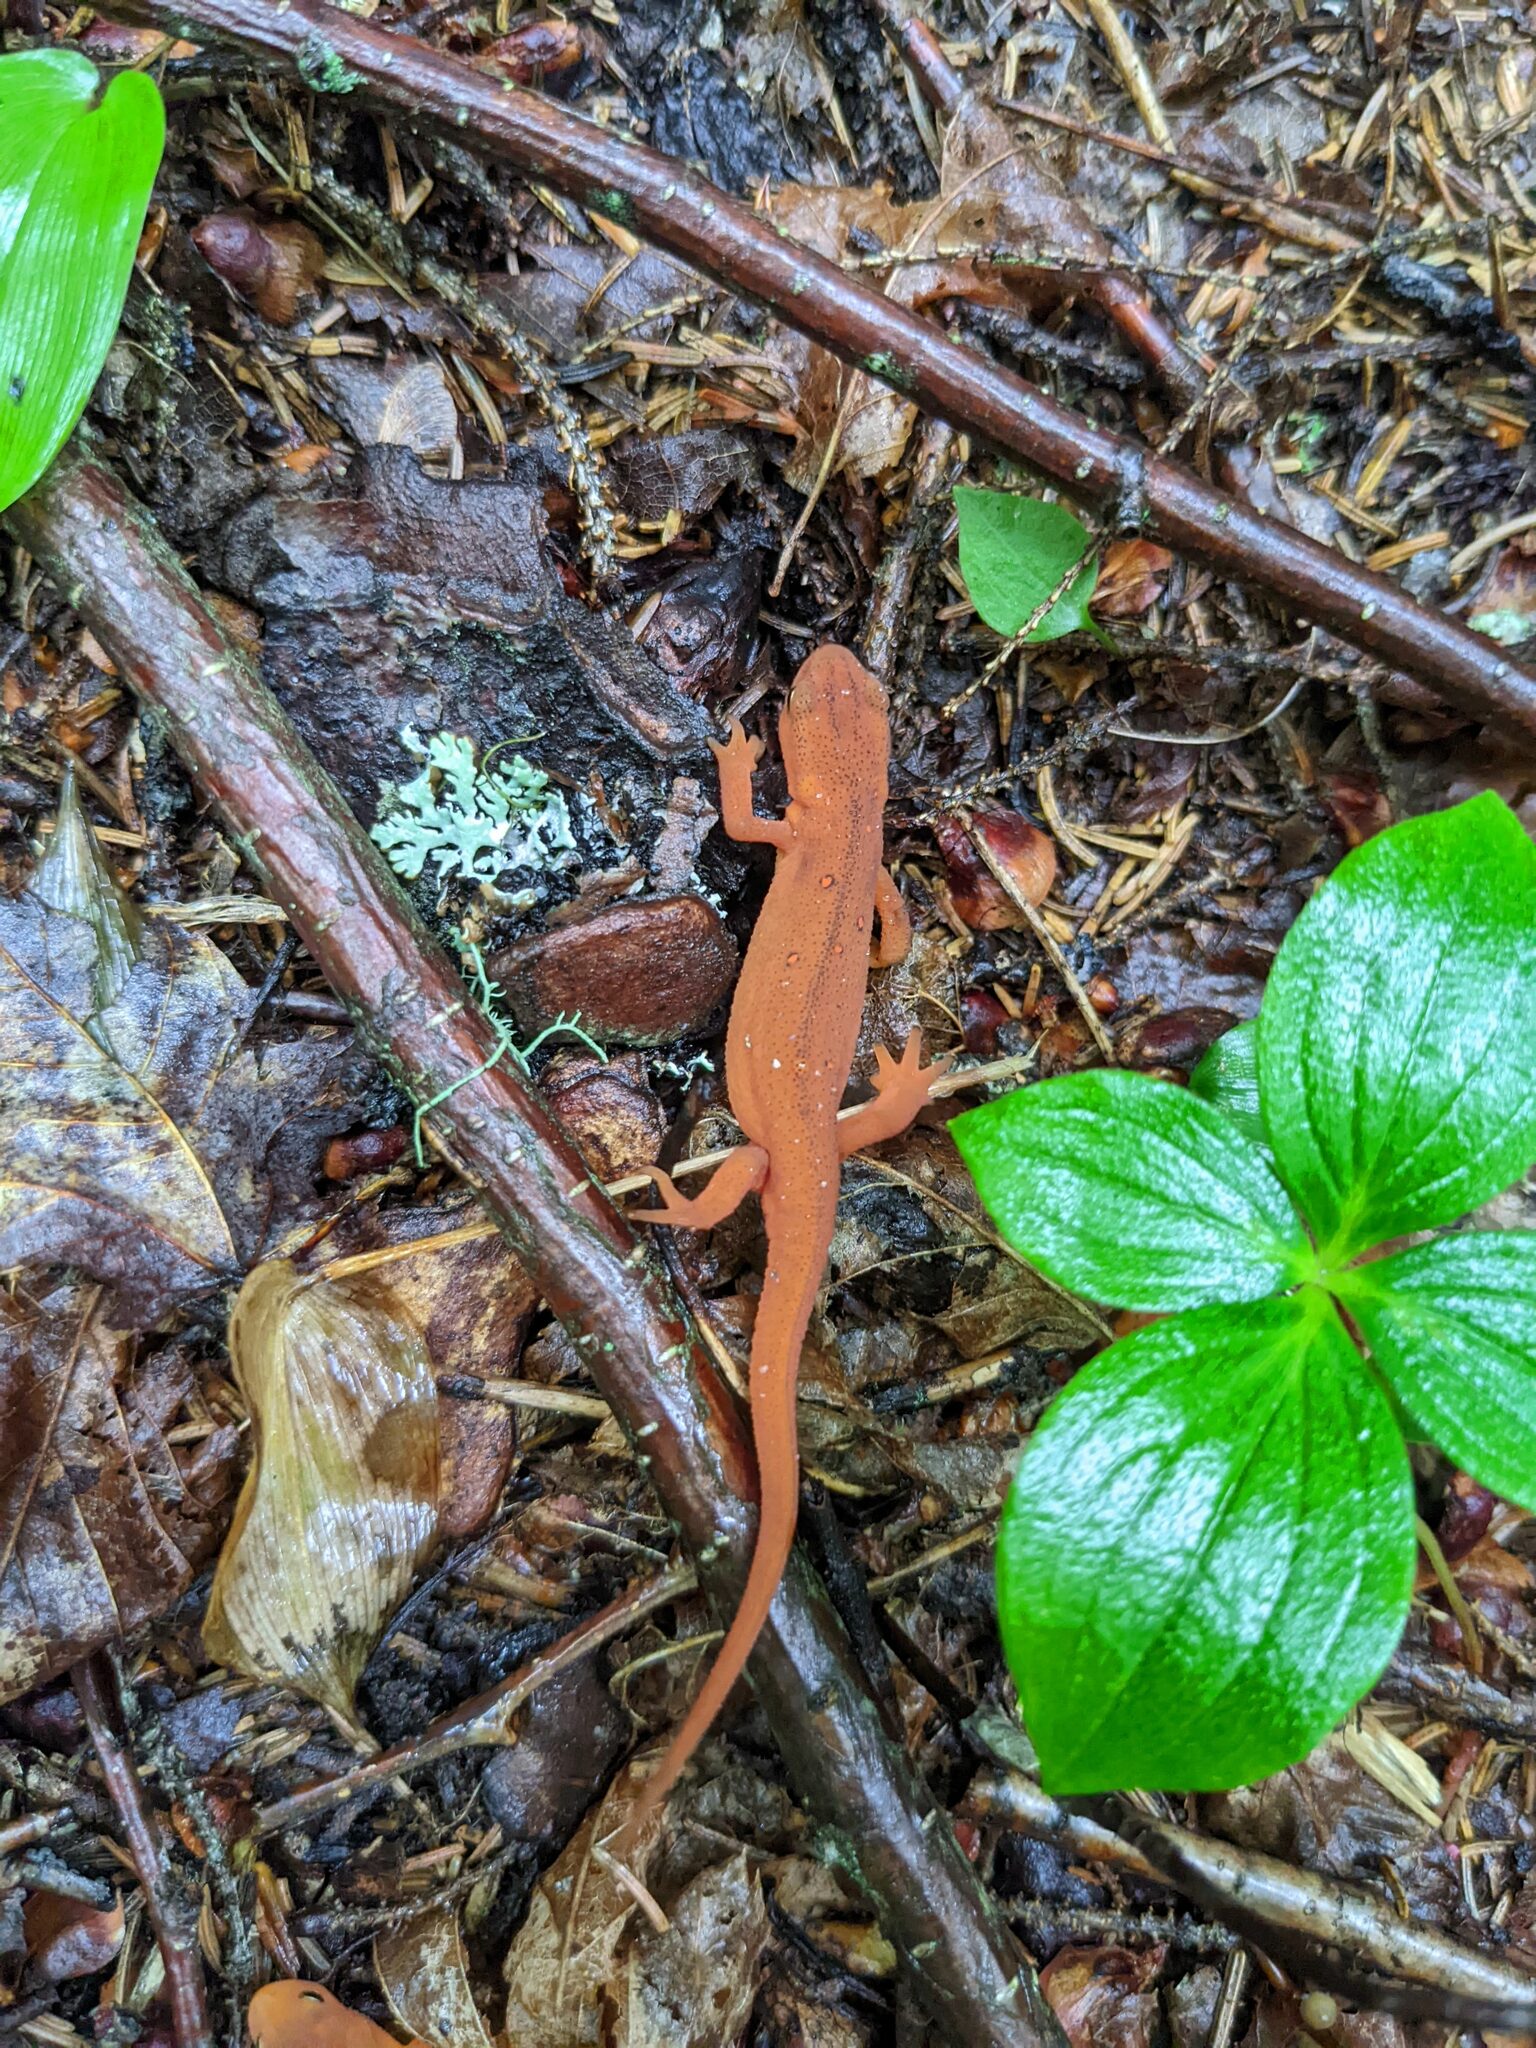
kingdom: Animalia
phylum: Chordata
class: Amphibia
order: Caudata
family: Salamandridae
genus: Notophthalmus
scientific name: Notophthalmus viridescens
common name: Eastern newt
